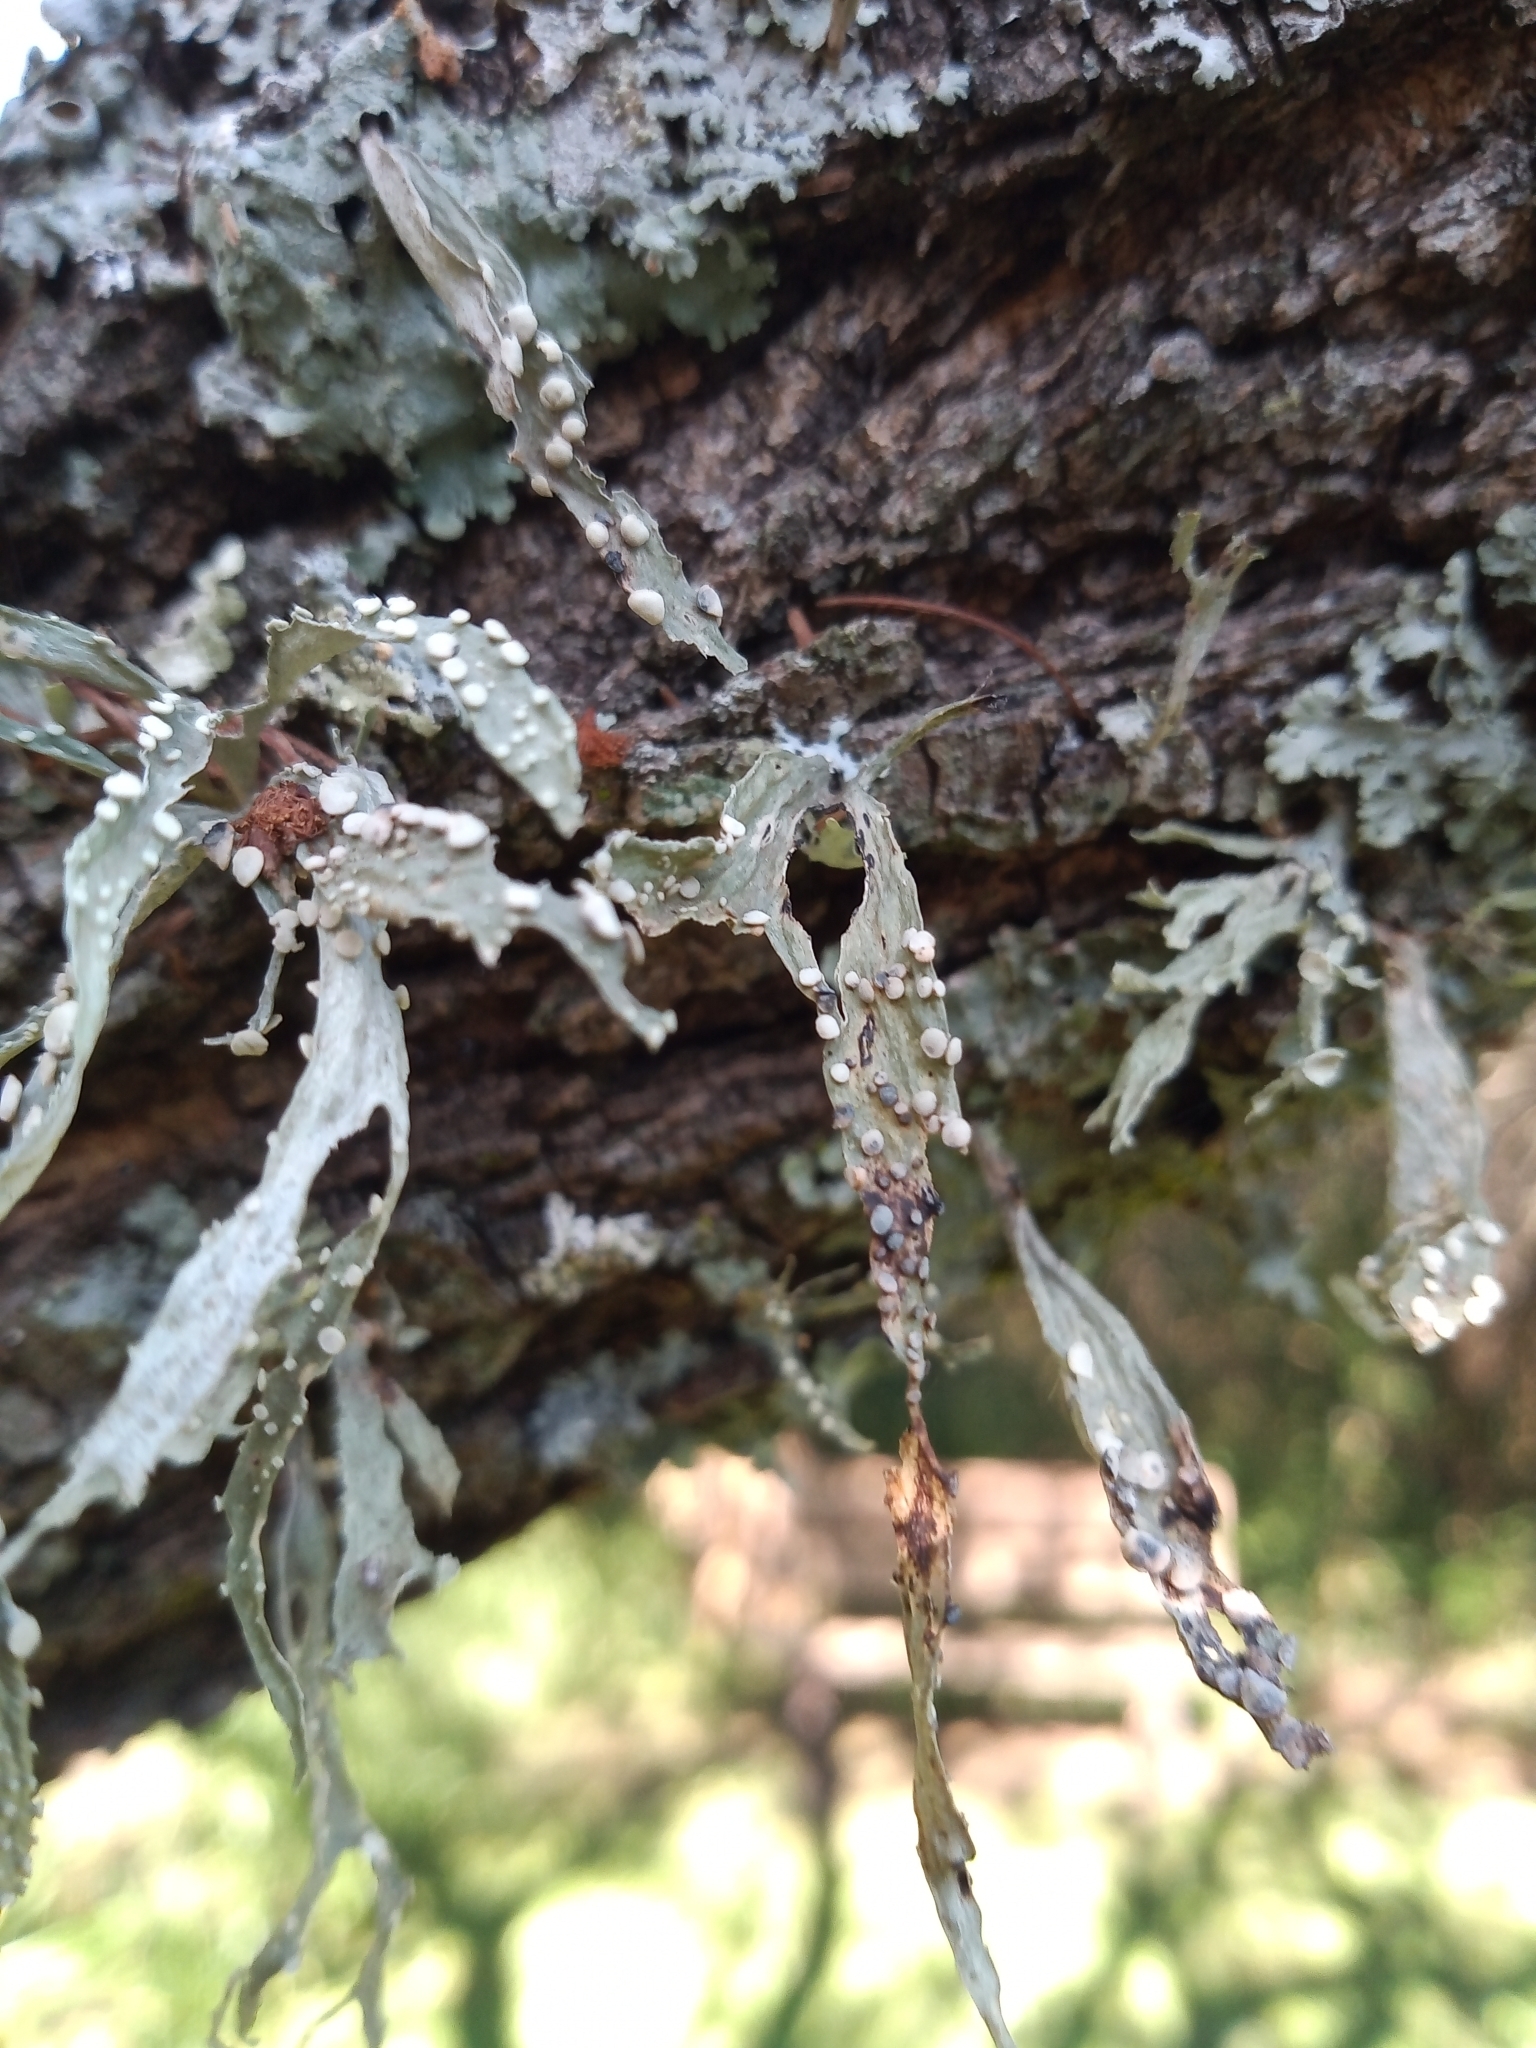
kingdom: Fungi
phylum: Ascomycota
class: Lecanoromycetes
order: Lecanorales
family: Ramalinaceae
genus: Ramalina
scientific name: Ramalina celastri
